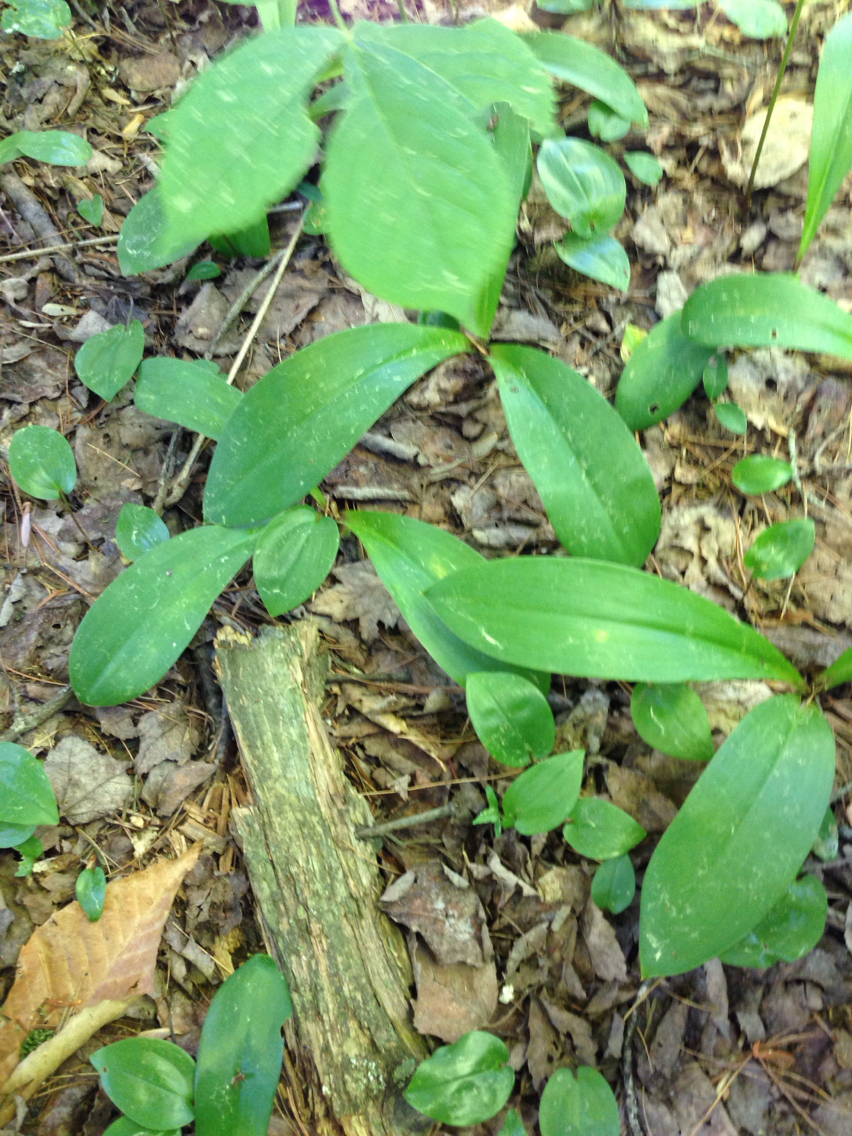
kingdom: Plantae
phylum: Tracheophyta
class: Liliopsida
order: Liliales
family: Liliaceae
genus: Clintonia
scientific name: Clintonia borealis
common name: Yellow clintonia
